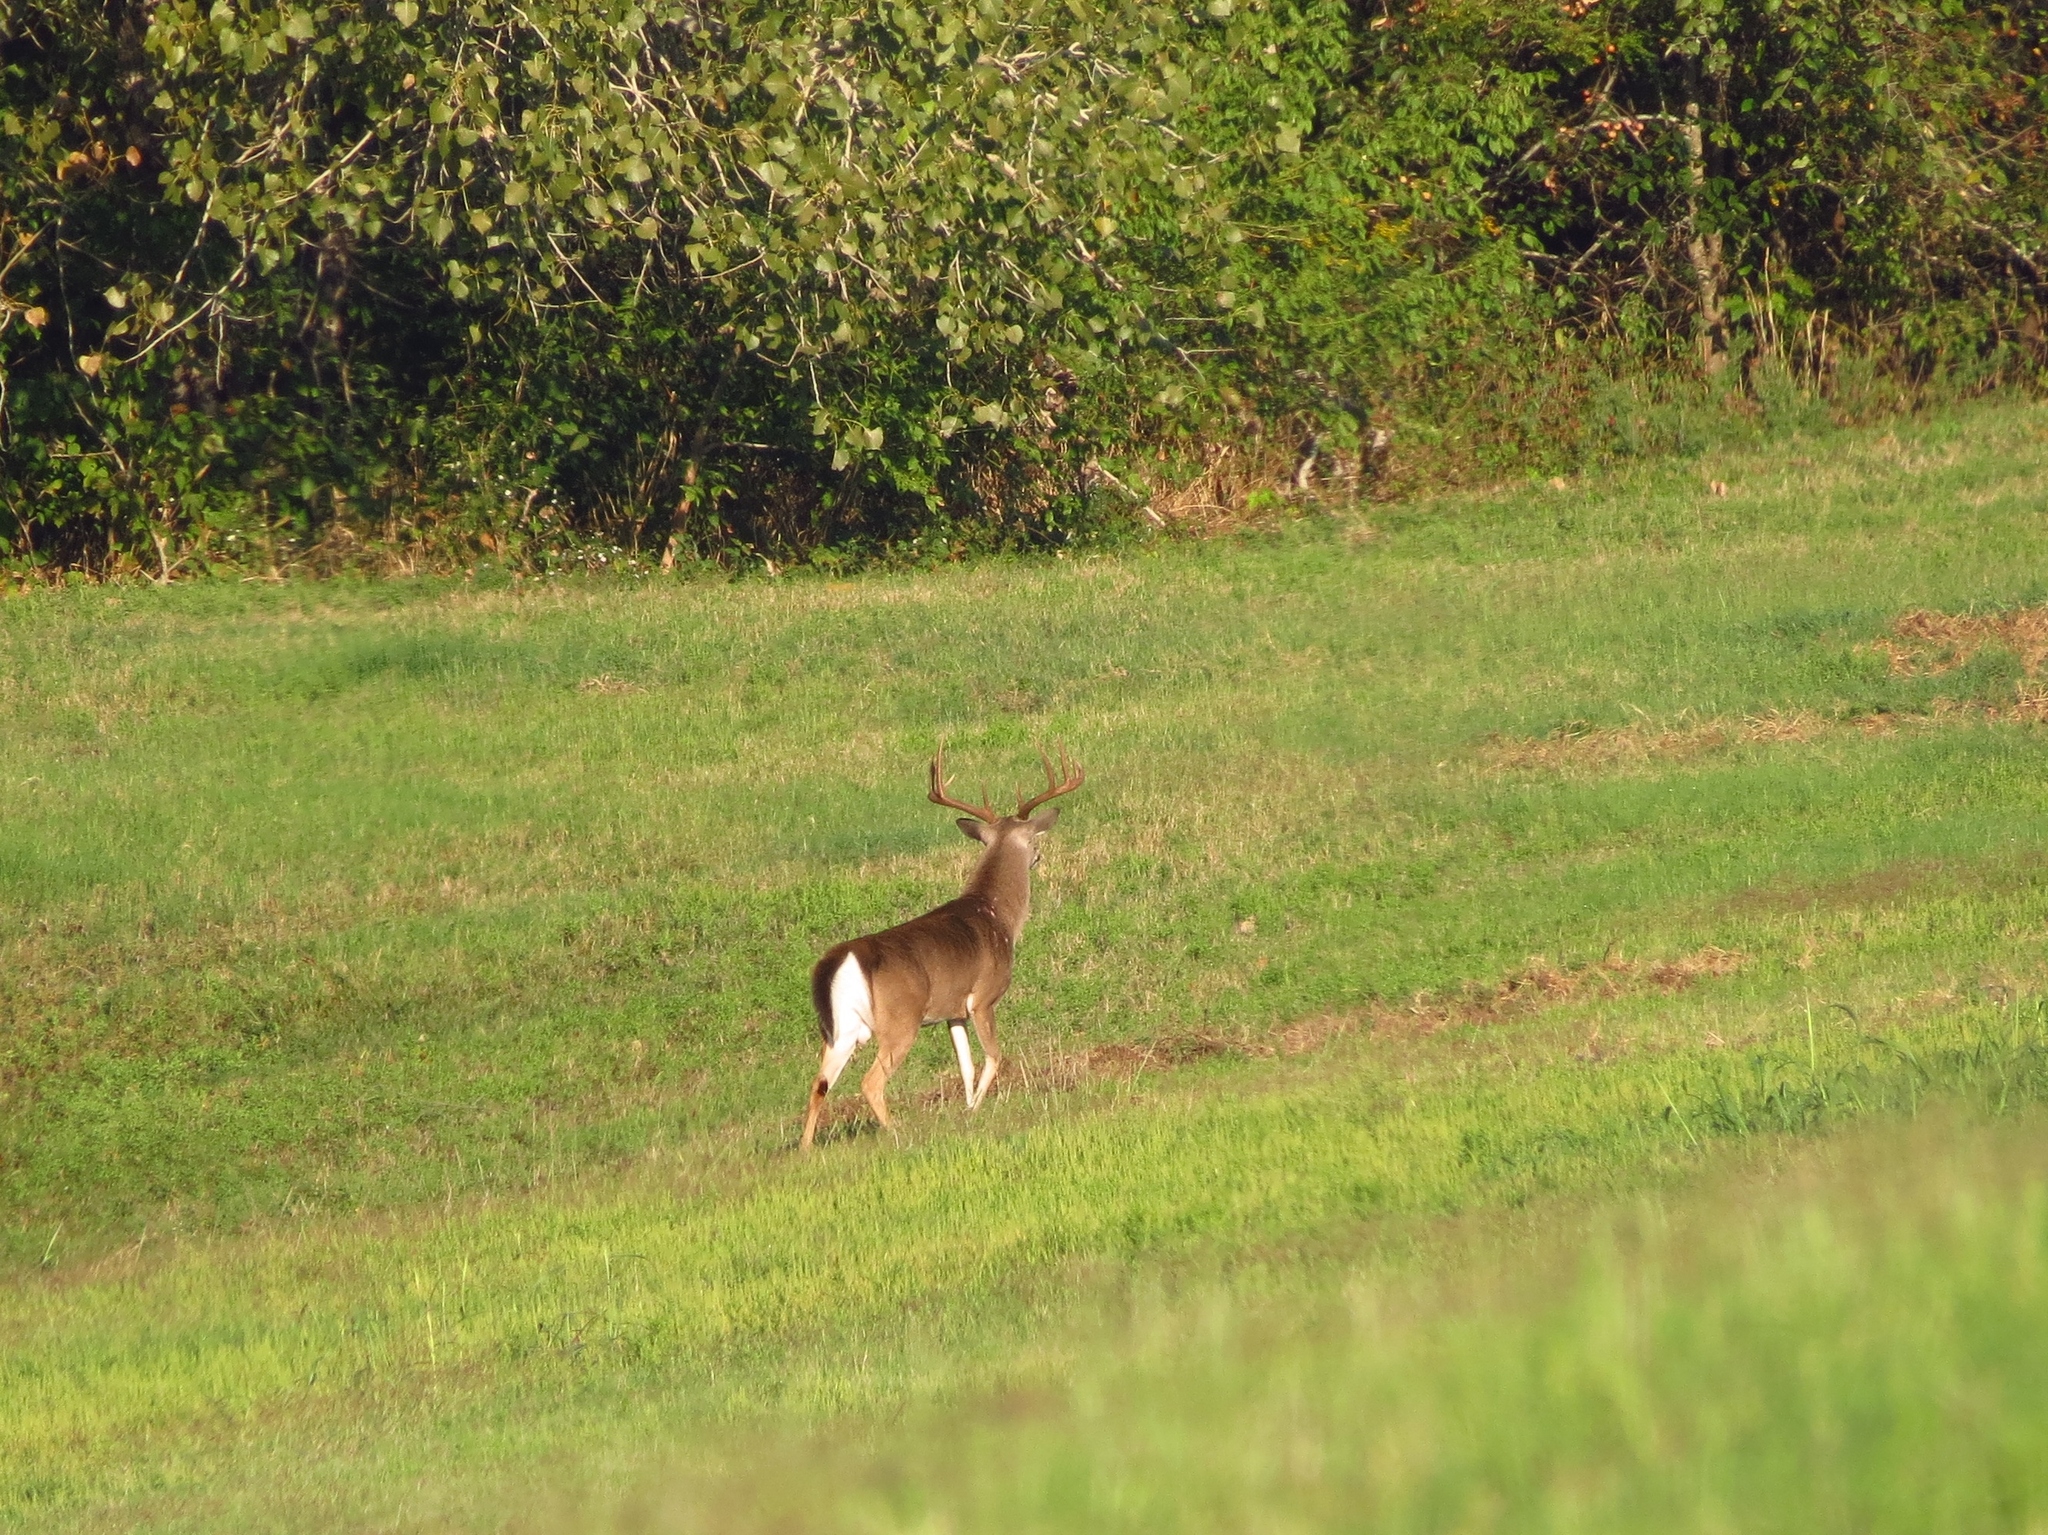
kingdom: Animalia
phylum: Chordata
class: Mammalia
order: Artiodactyla
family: Cervidae
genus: Odocoileus
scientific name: Odocoileus virginianus
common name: White-tailed deer
